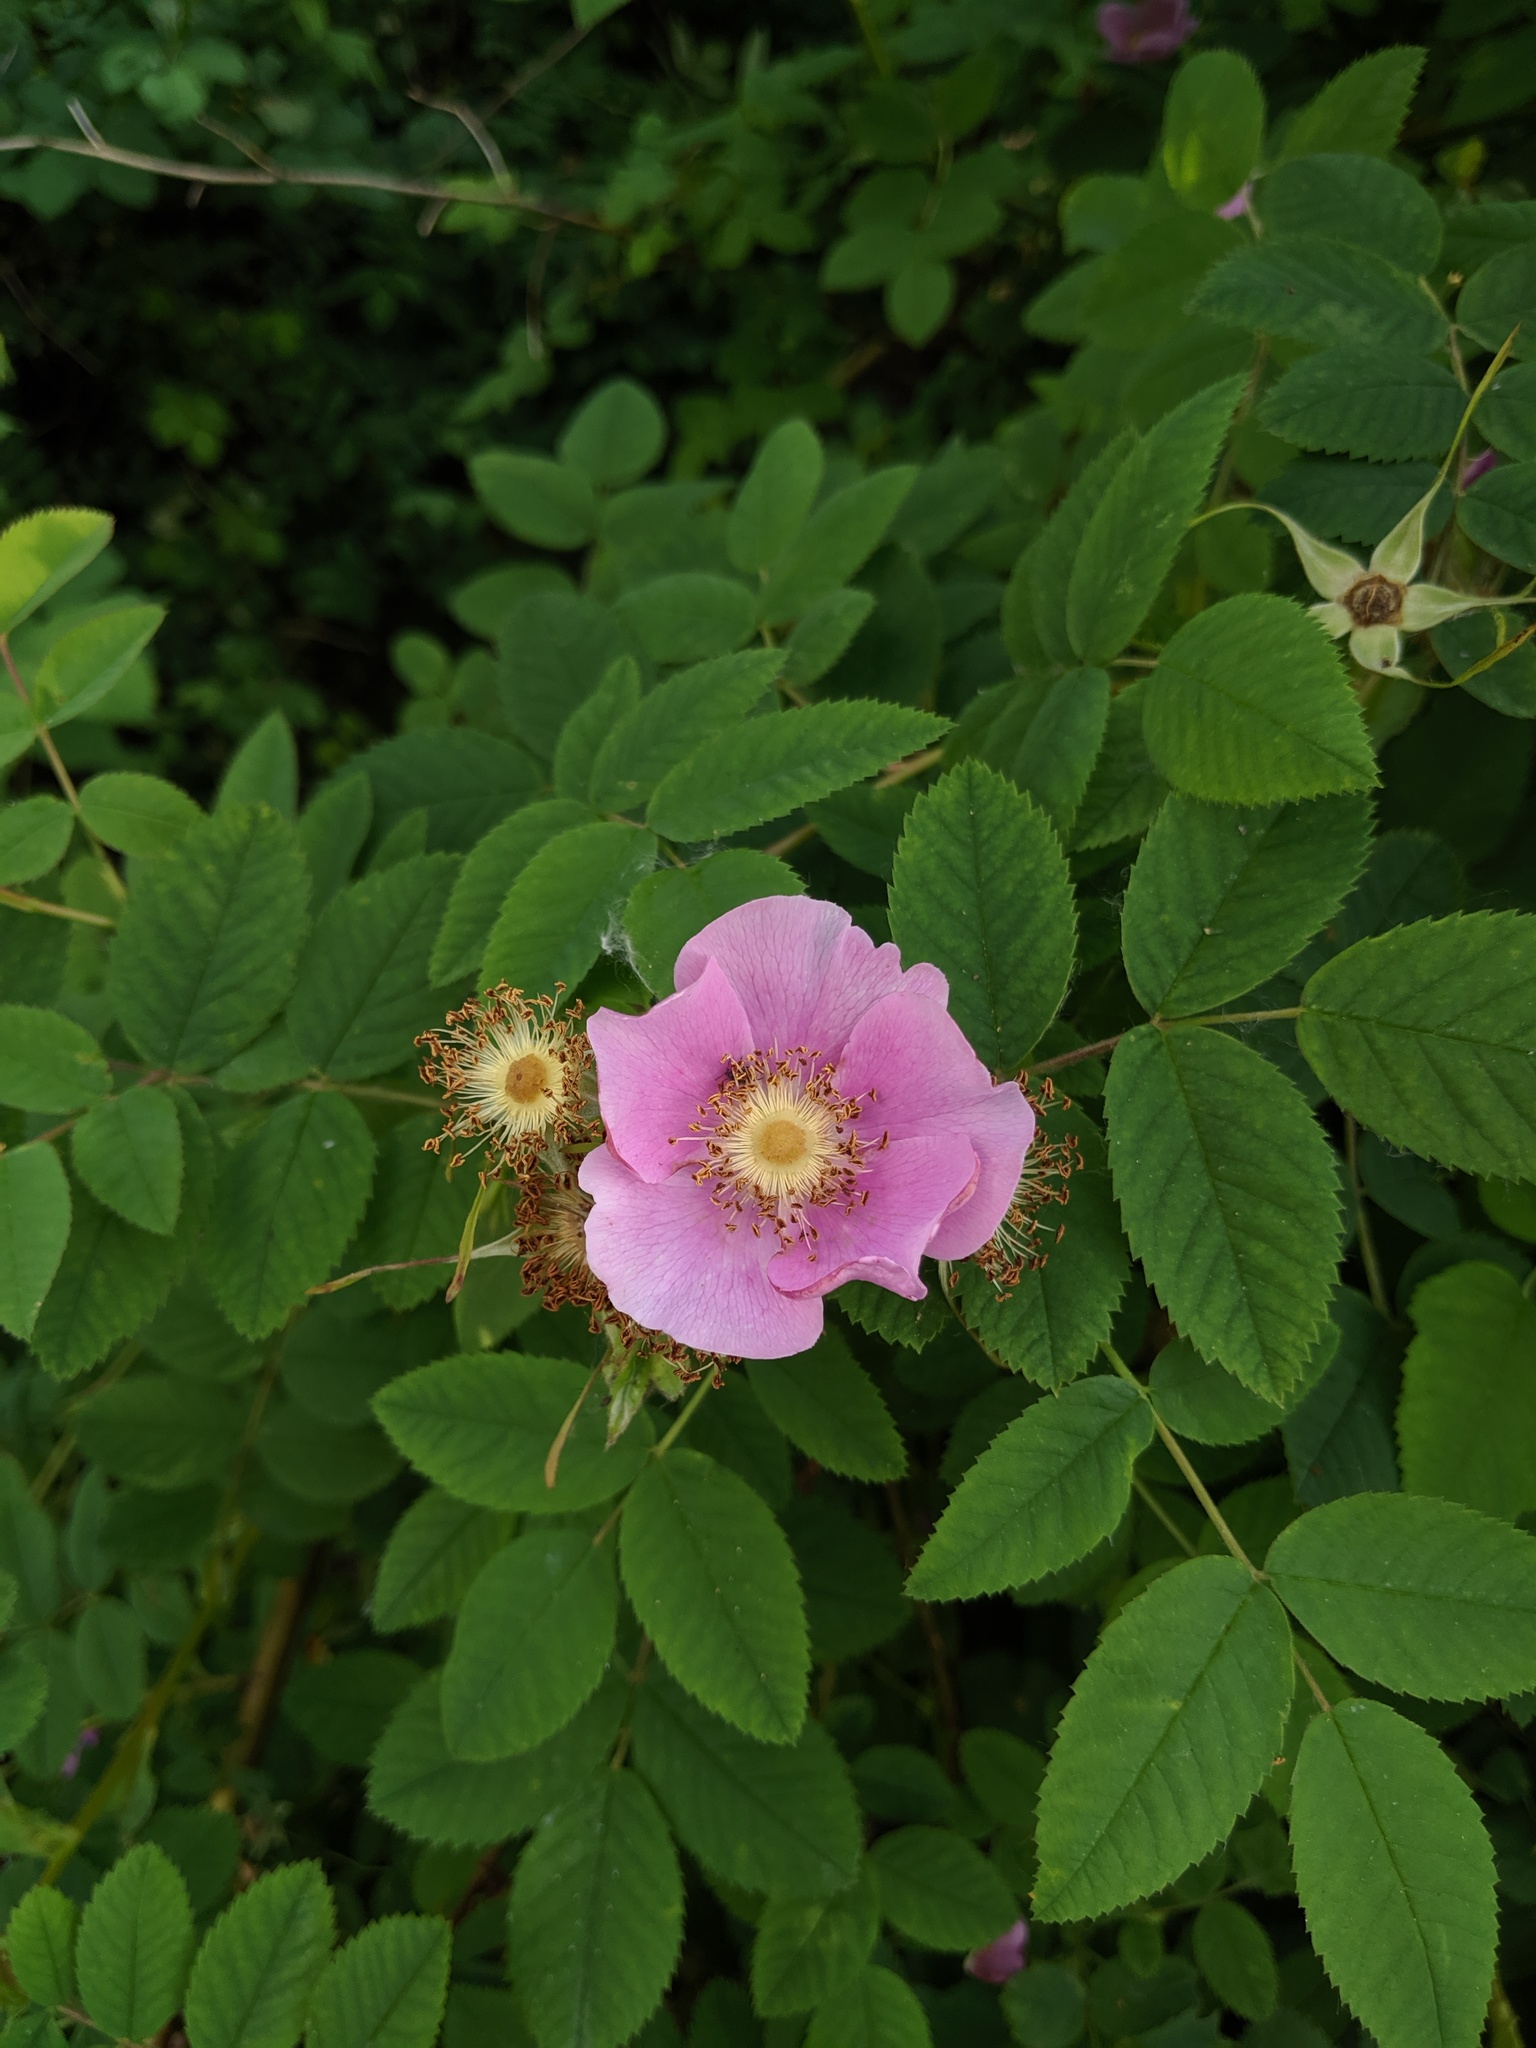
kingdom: Plantae
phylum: Tracheophyta
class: Magnoliopsida
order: Rosales
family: Rosaceae
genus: Rosa
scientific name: Rosa nutkana
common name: Nootka rose
